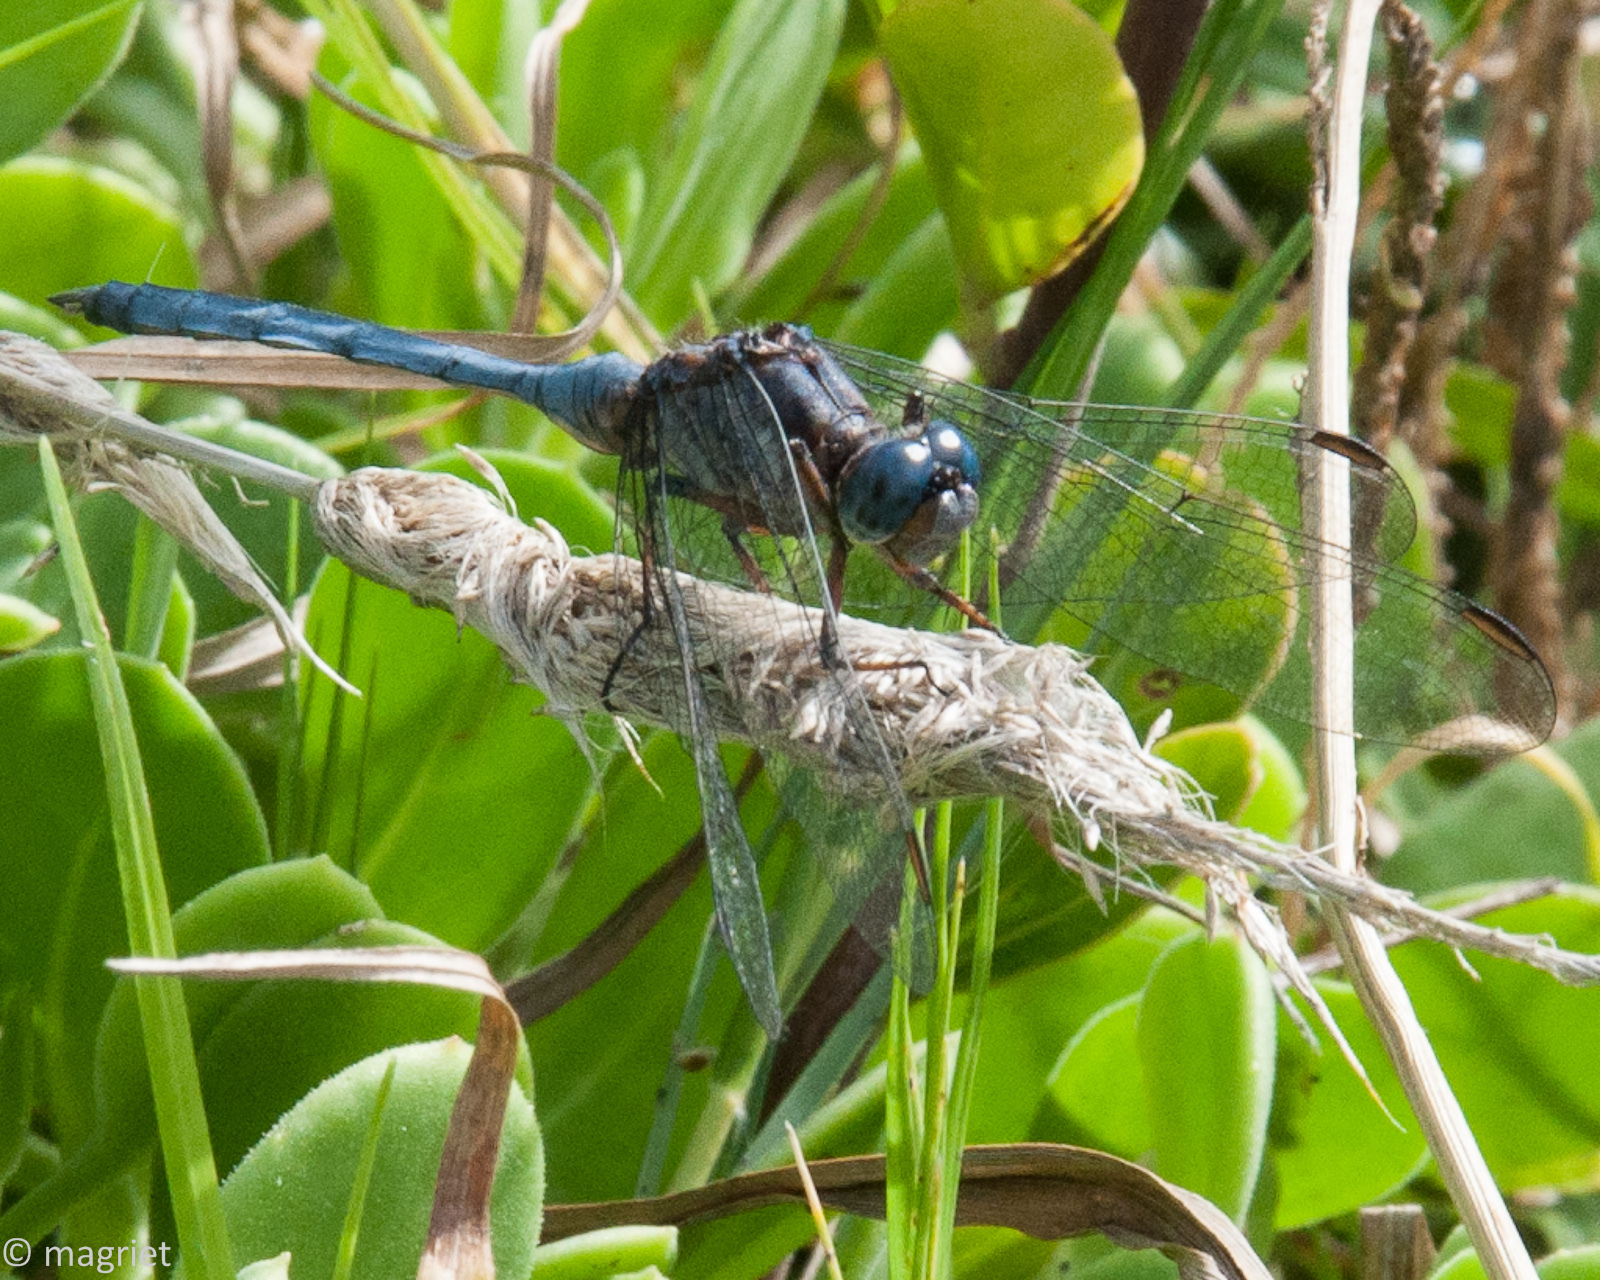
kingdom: Animalia
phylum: Arthropoda
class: Insecta
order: Odonata
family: Libellulidae
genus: Orthetrum
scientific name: Orthetrum caffrum
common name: Two-striped skimmer
